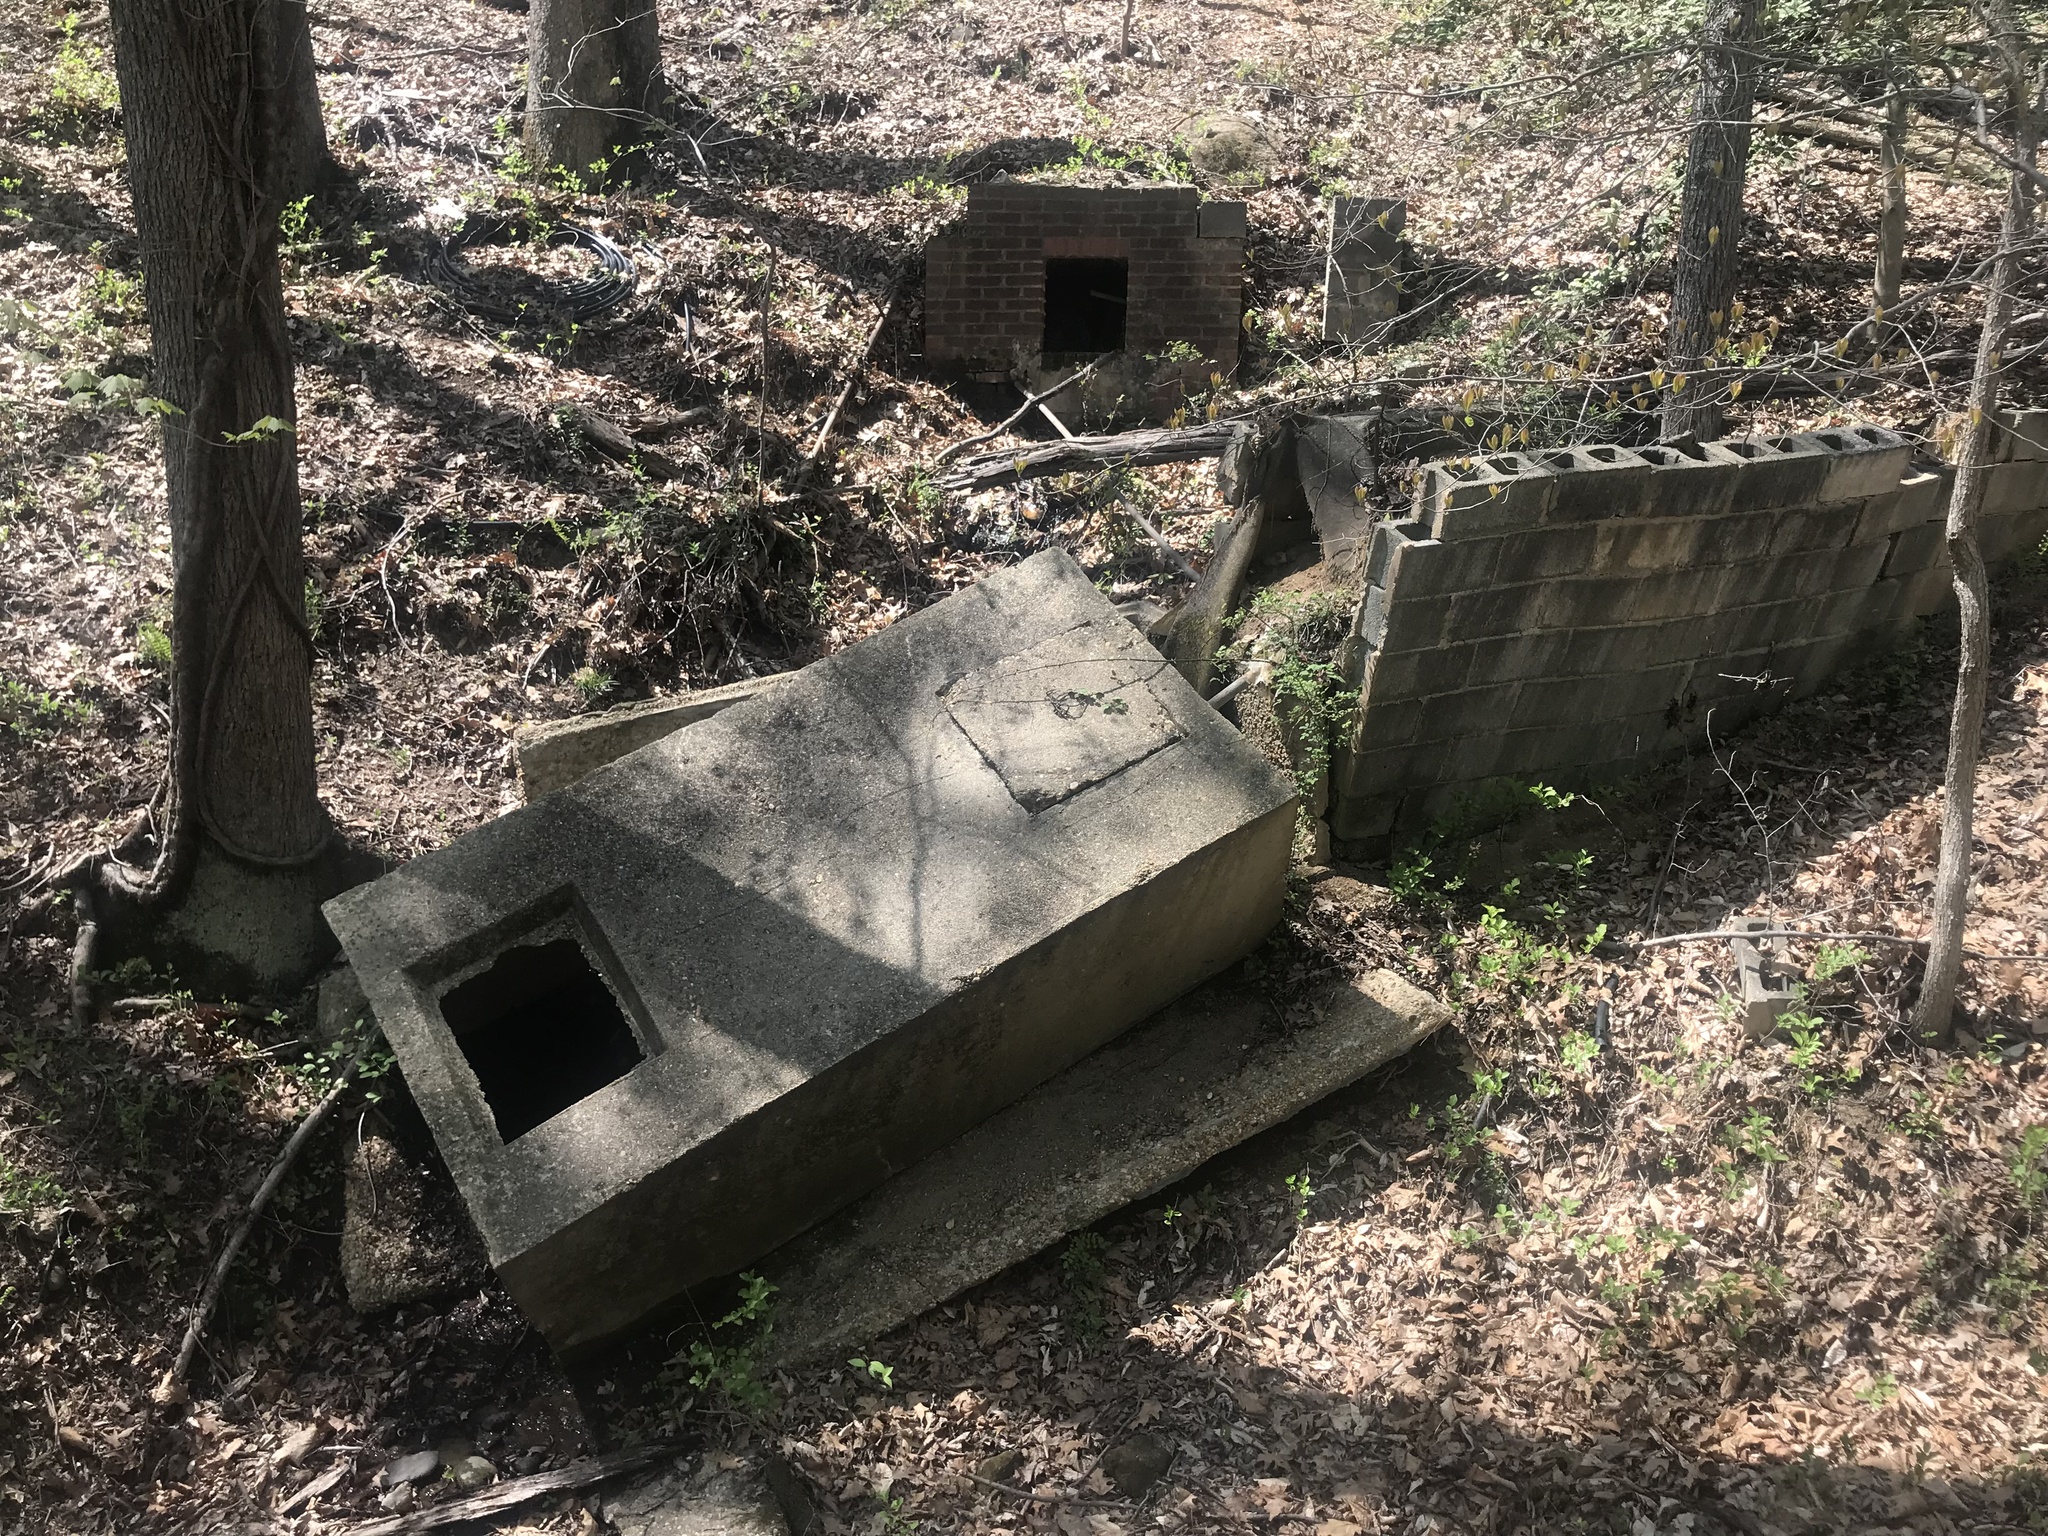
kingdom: Plantae
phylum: Tracheophyta
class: Magnoliopsida
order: Sapindales
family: Anacardiaceae
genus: Toxicodendron
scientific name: Toxicodendron radicans
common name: Poison ivy
